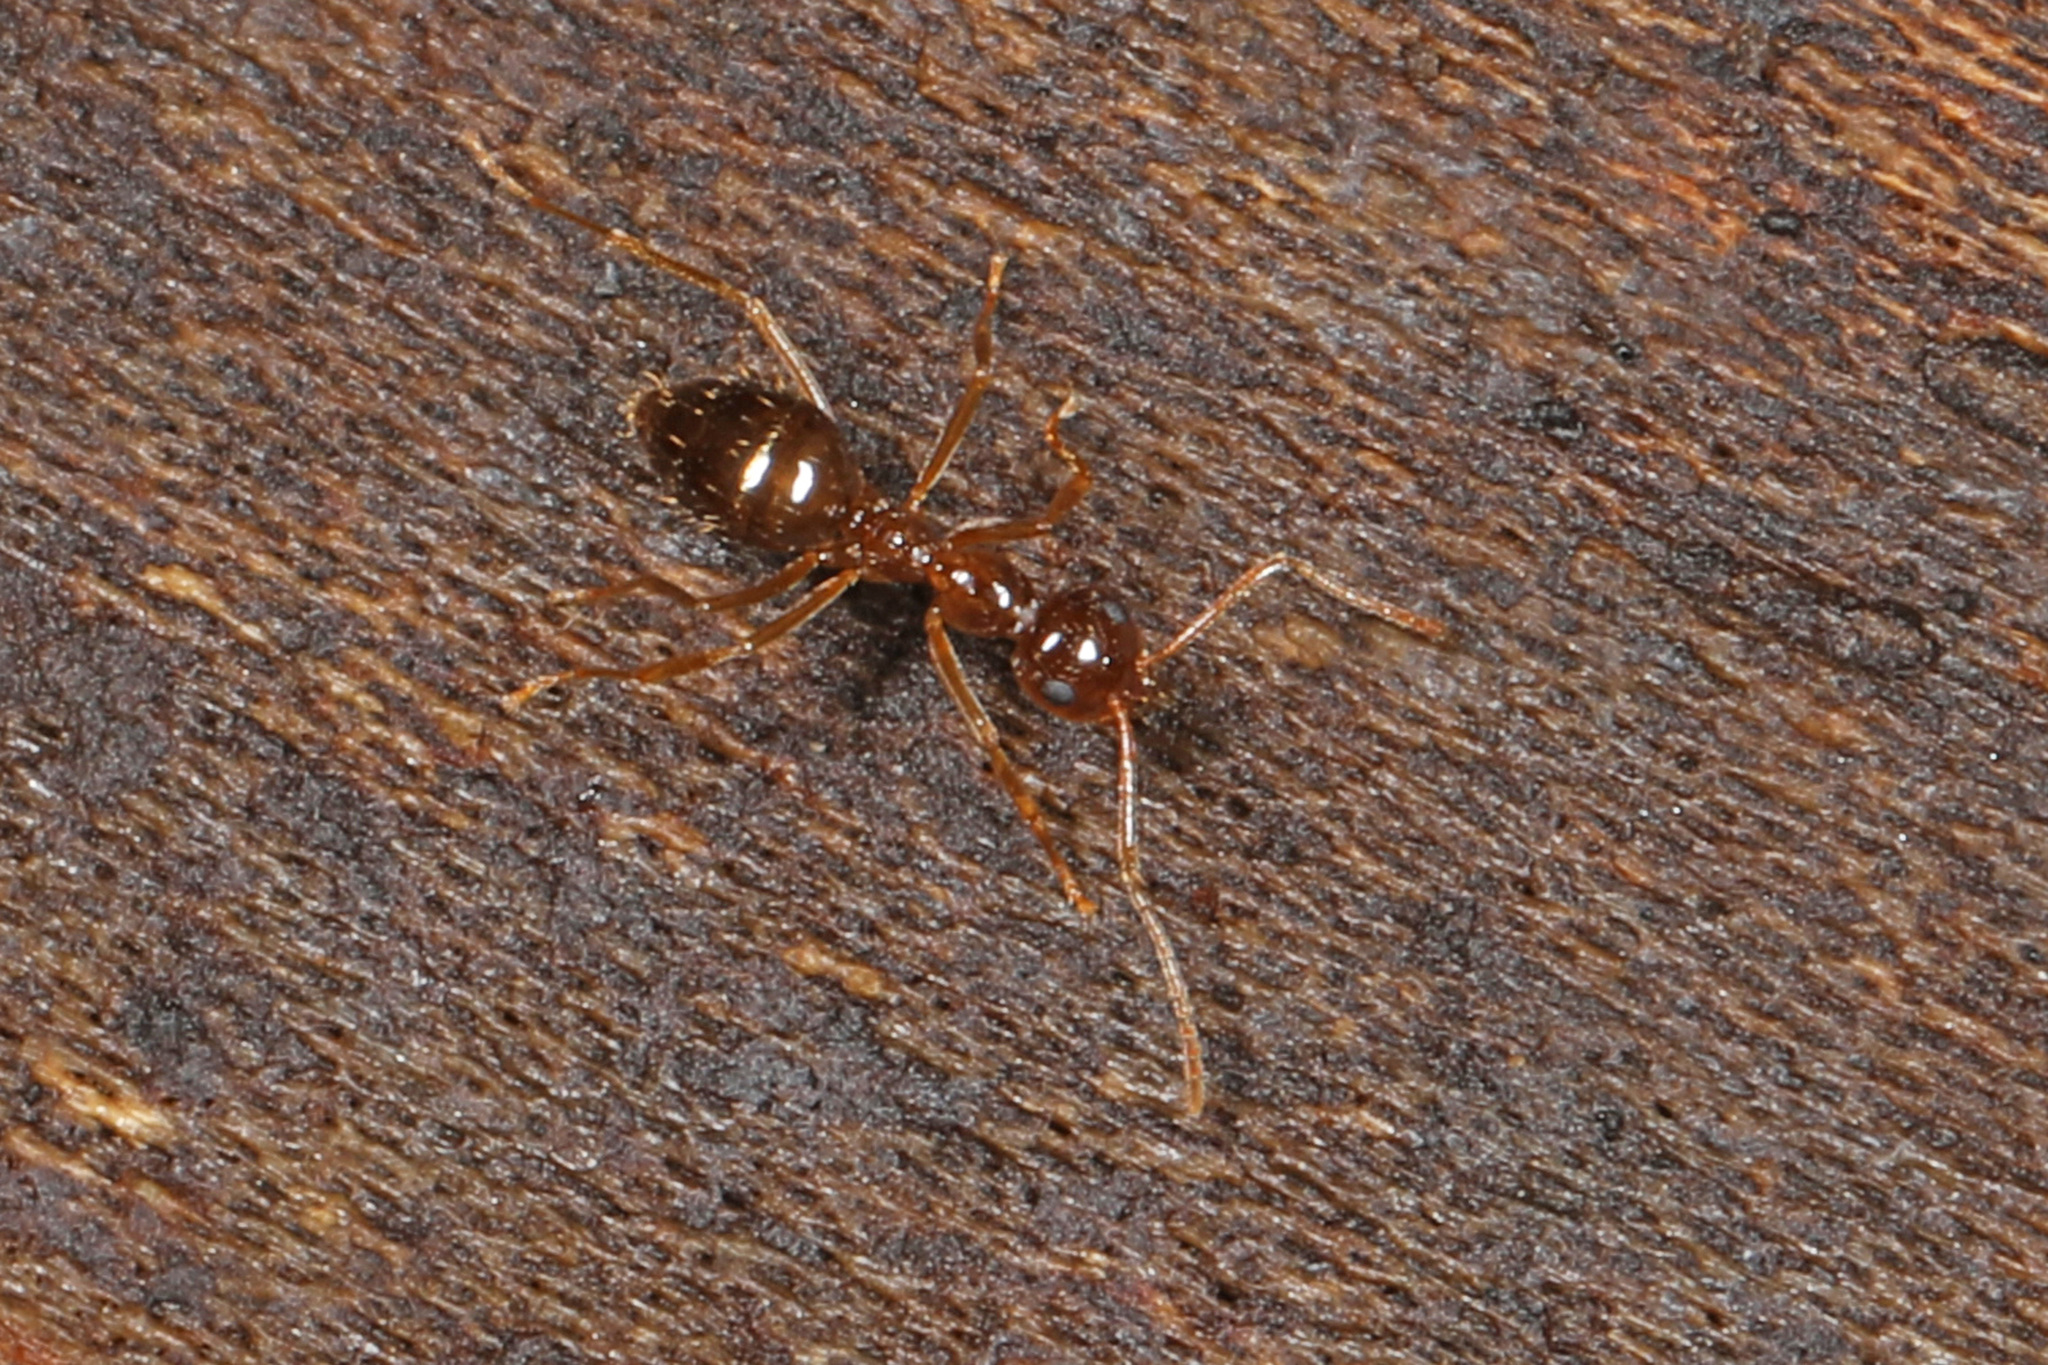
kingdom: Animalia
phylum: Arthropoda
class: Insecta
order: Hymenoptera
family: Formicidae
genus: Prenolepis
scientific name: Prenolepis imparis
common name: Small honey ant
